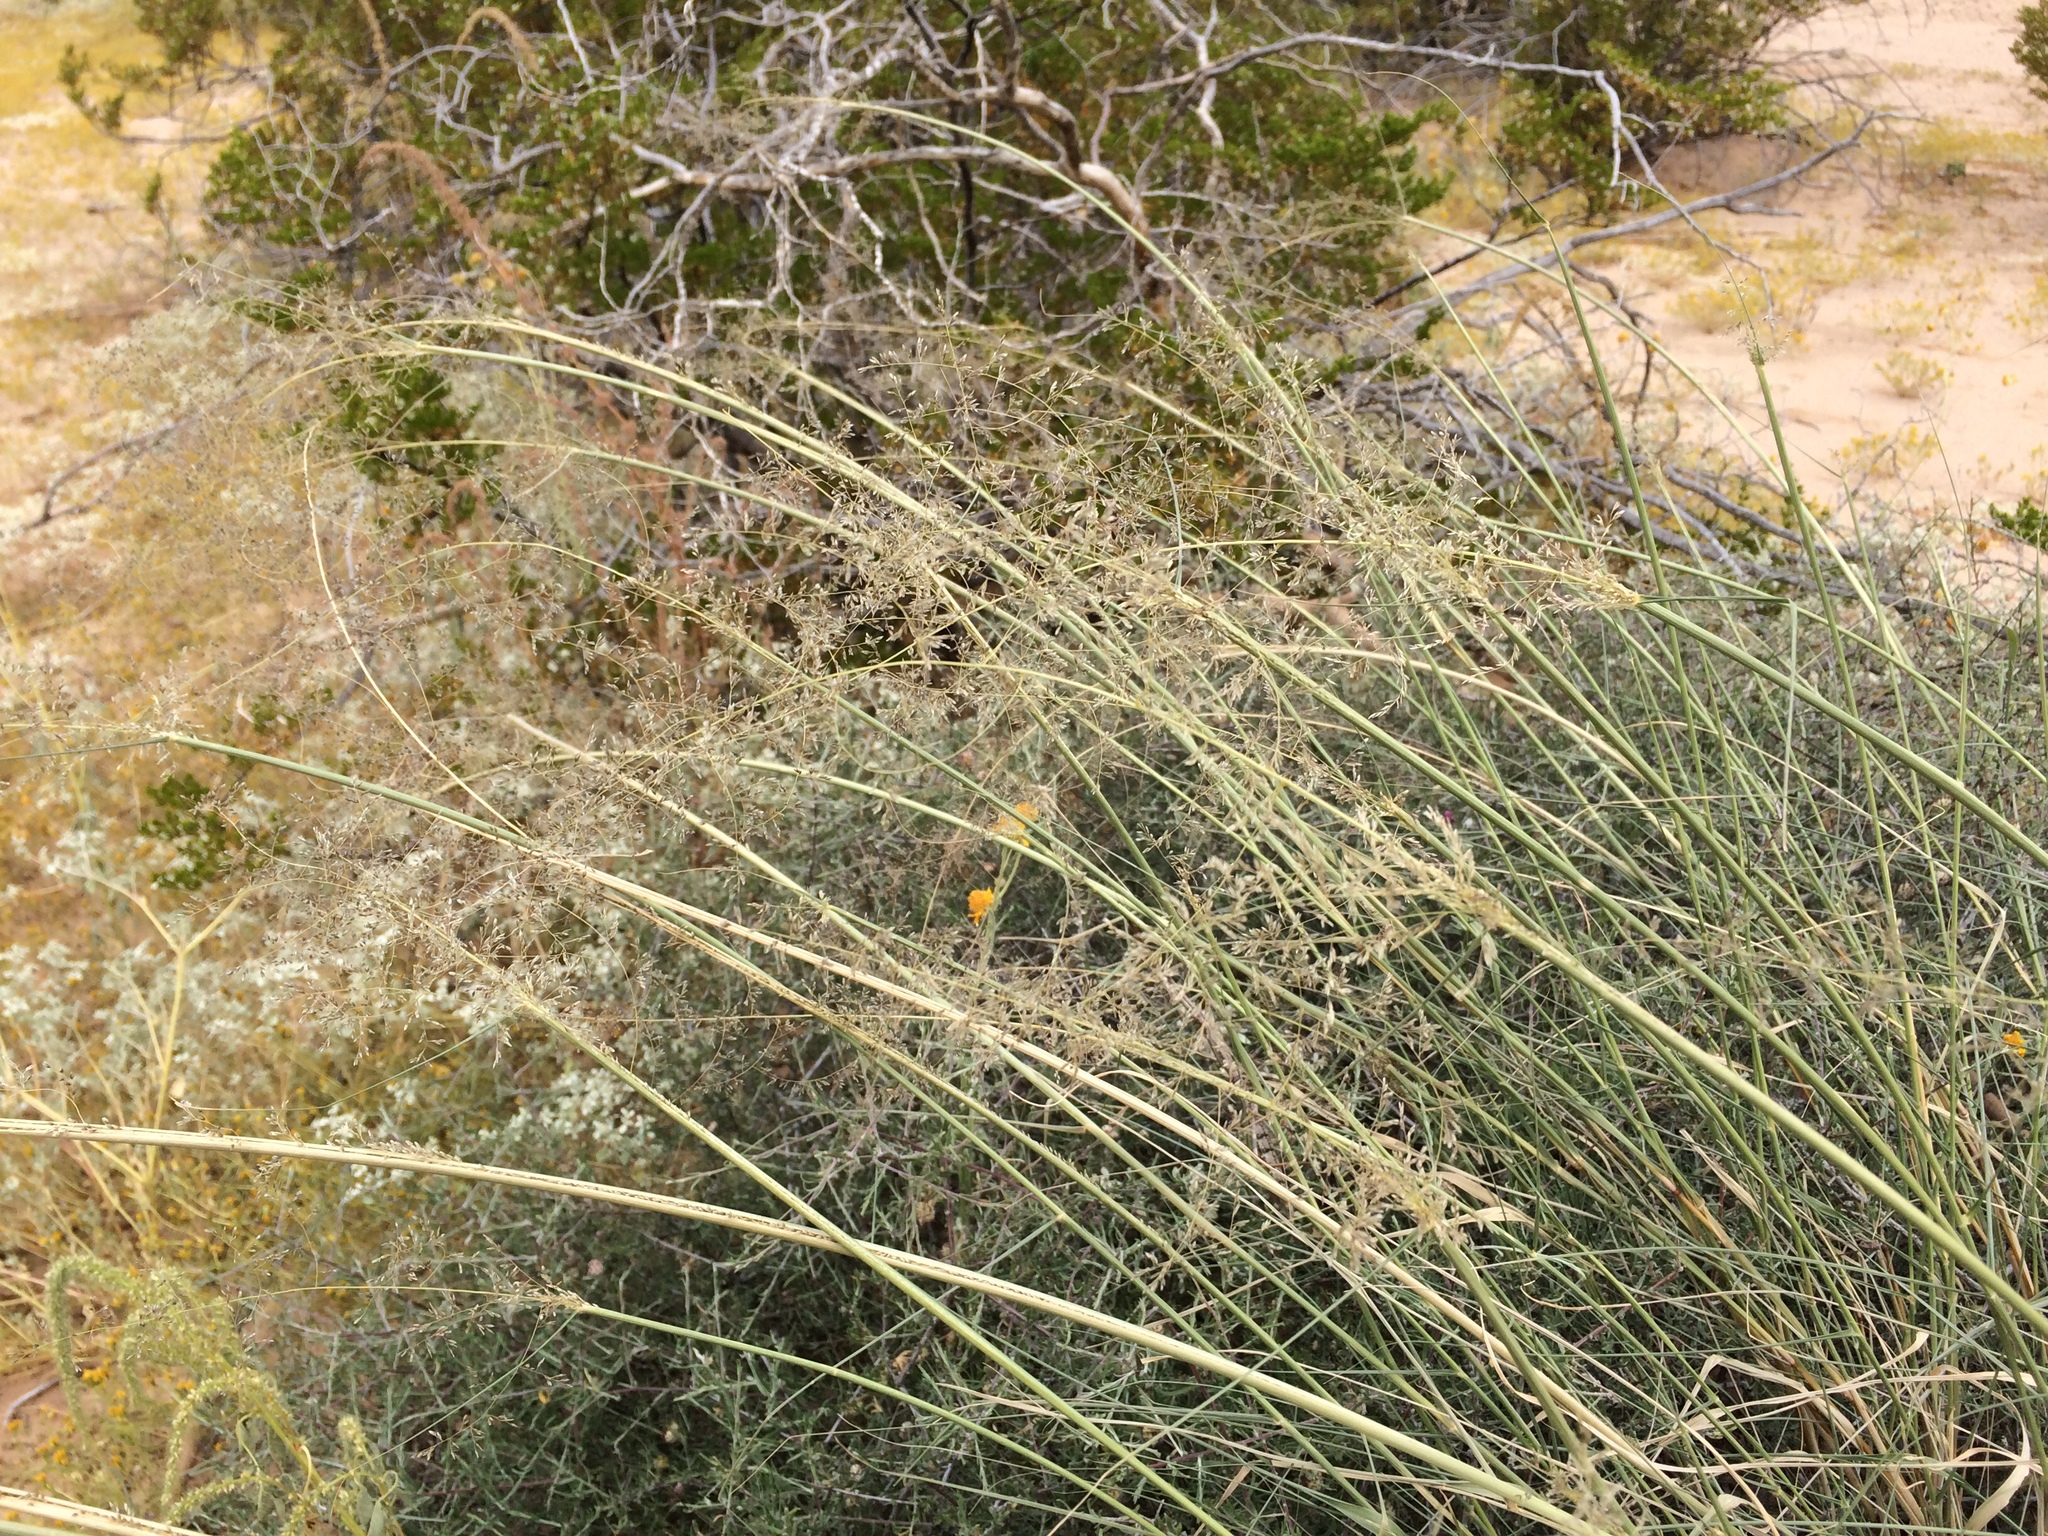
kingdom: Plantae
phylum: Tracheophyta
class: Liliopsida
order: Poales
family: Poaceae
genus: Sporobolus
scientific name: Sporobolus flexuosus
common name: Mesa dropseed
